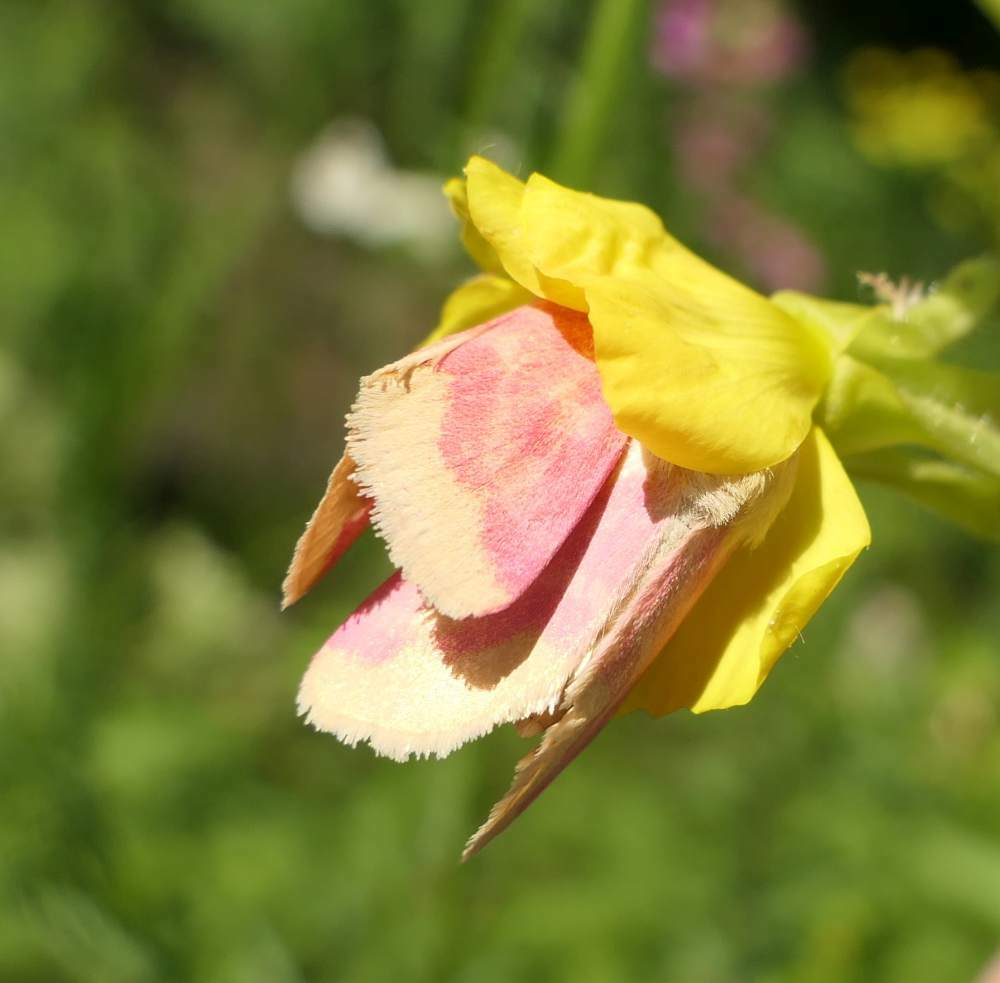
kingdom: Animalia
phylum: Arthropoda
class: Insecta
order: Lepidoptera
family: Noctuidae
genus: Schinia
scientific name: Schinia florida
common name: Primrose moth
